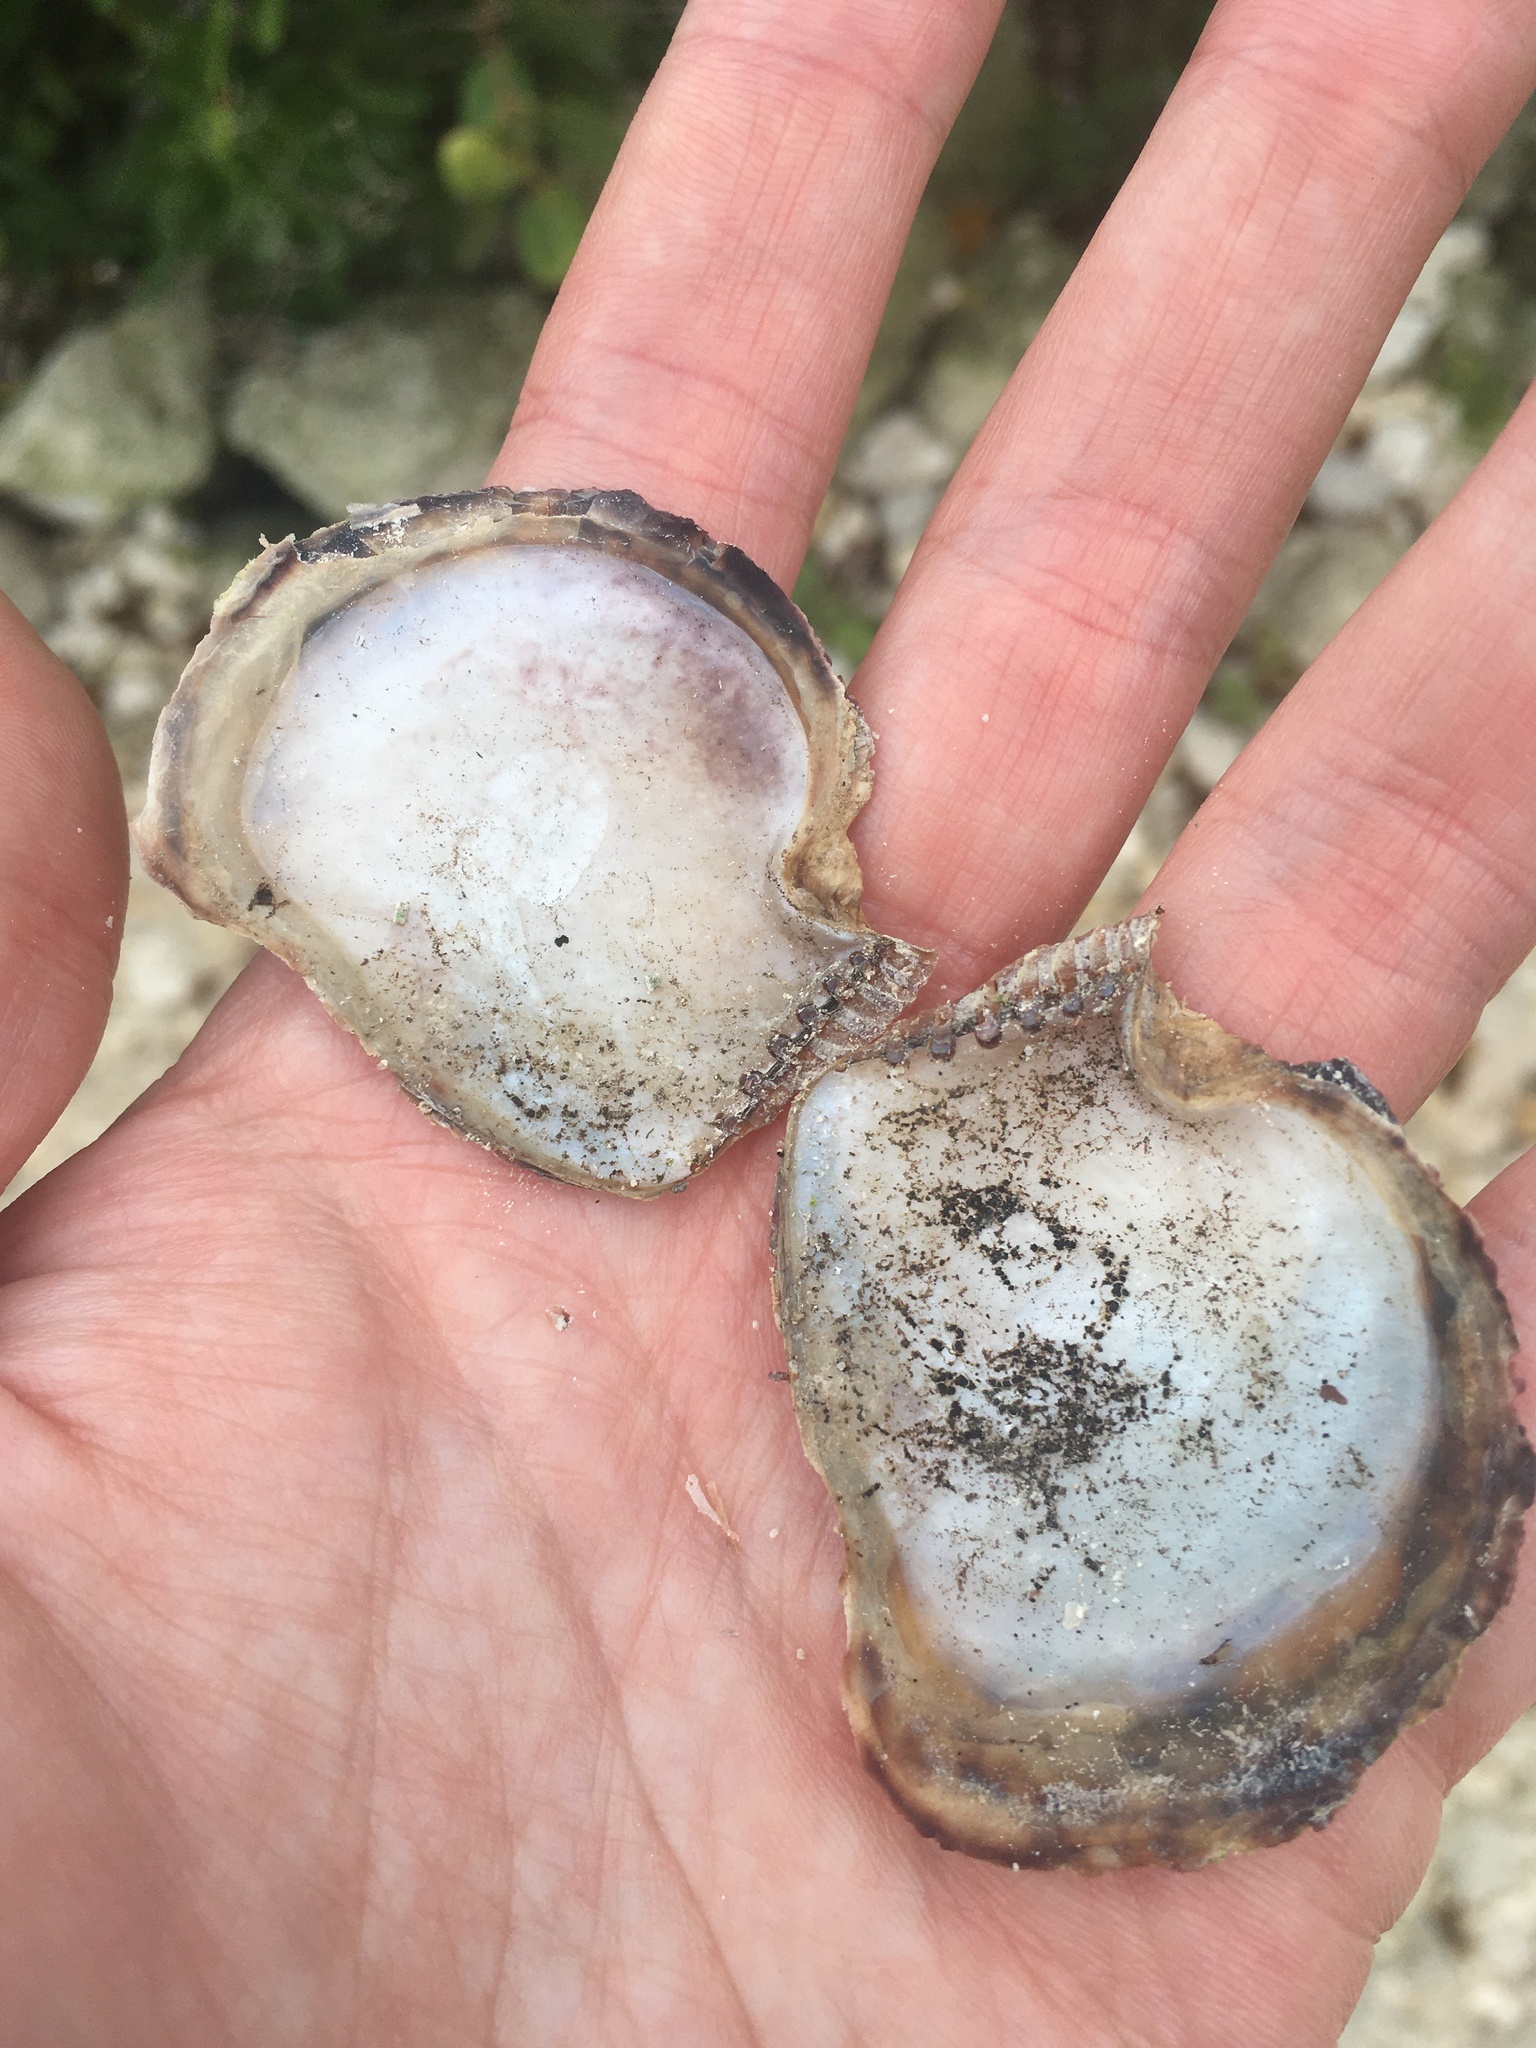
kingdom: Animalia
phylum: Mollusca
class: Bivalvia
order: Ostreida
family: Isognomonidae
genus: Isognomon
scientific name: Isognomon alatus
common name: Flat tree-oyster
